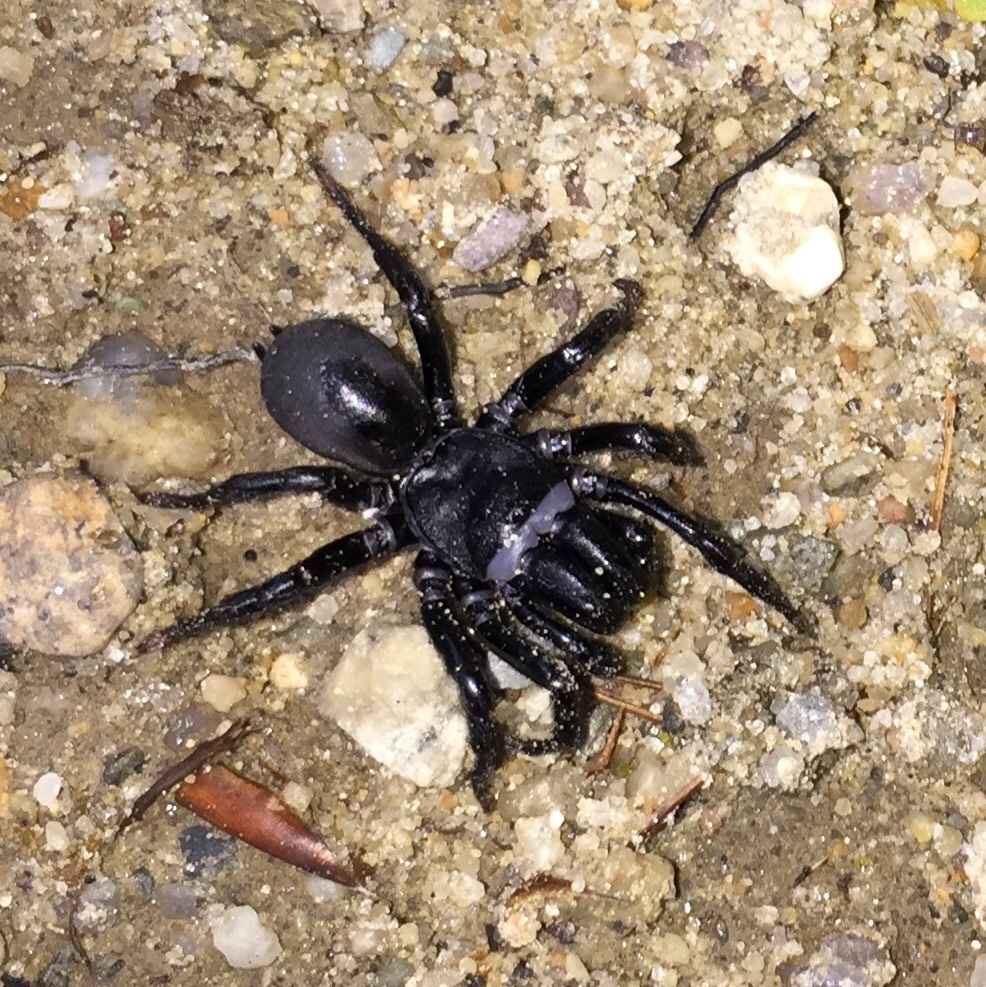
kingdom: Animalia
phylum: Arthropoda
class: Arachnida
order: Araneae
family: Atypidae
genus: Sphodros
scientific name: Sphodros niger
